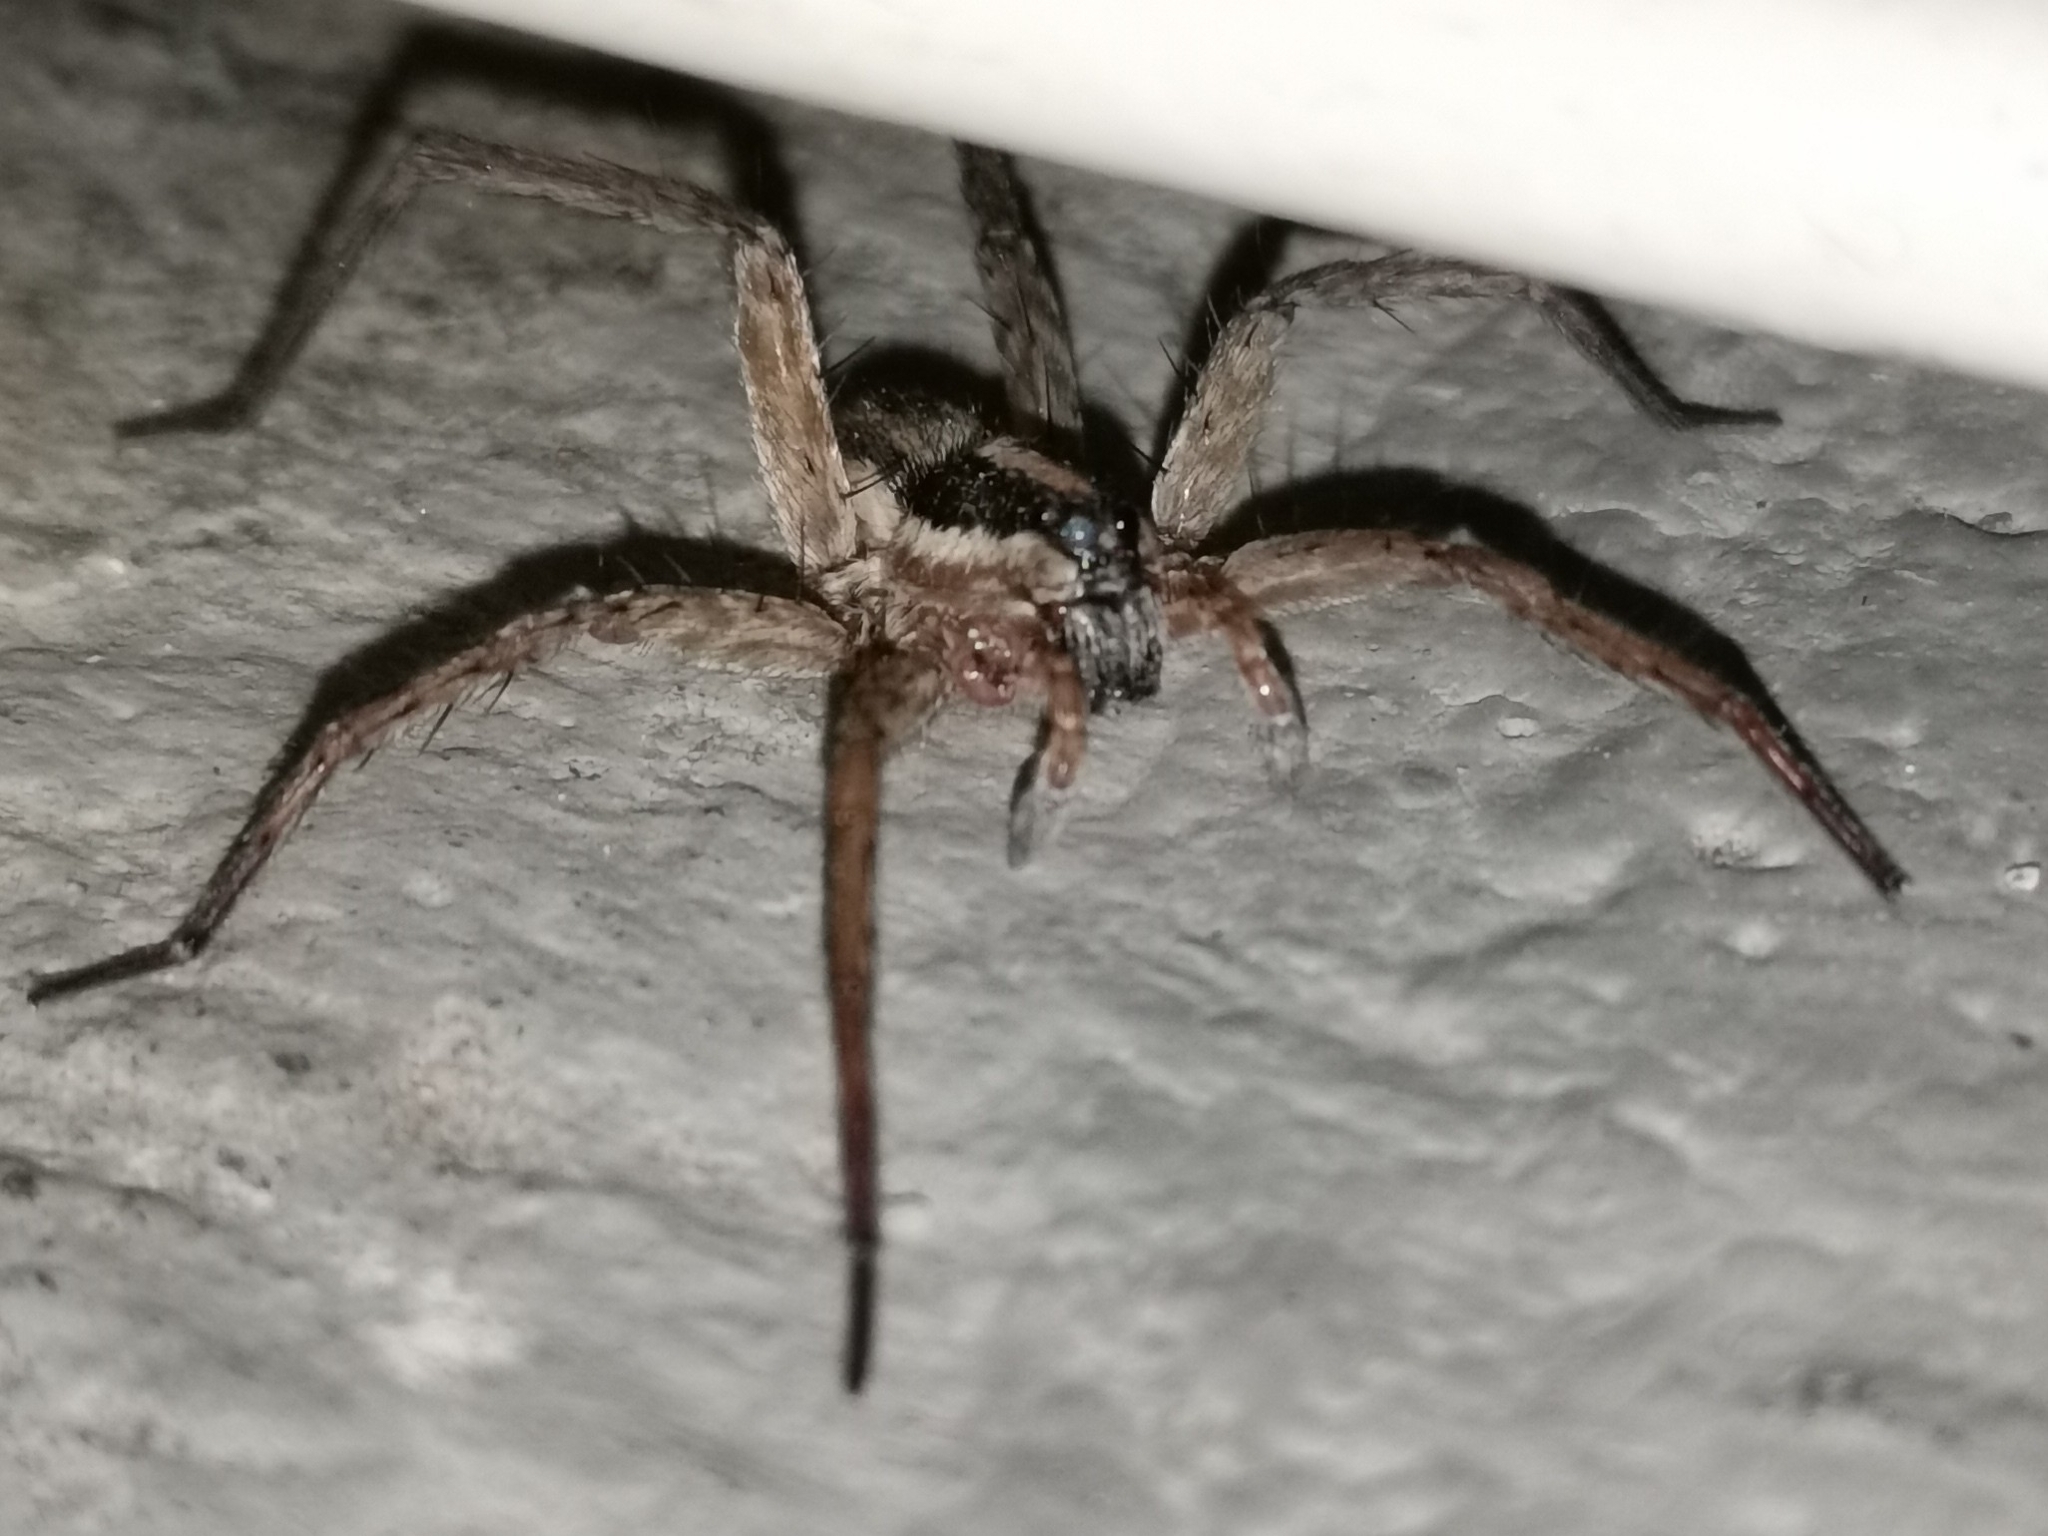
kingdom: Animalia
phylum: Arthropoda
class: Arachnida
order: Araneae
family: Lycosidae
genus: Hogna
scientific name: Hogna graeca
